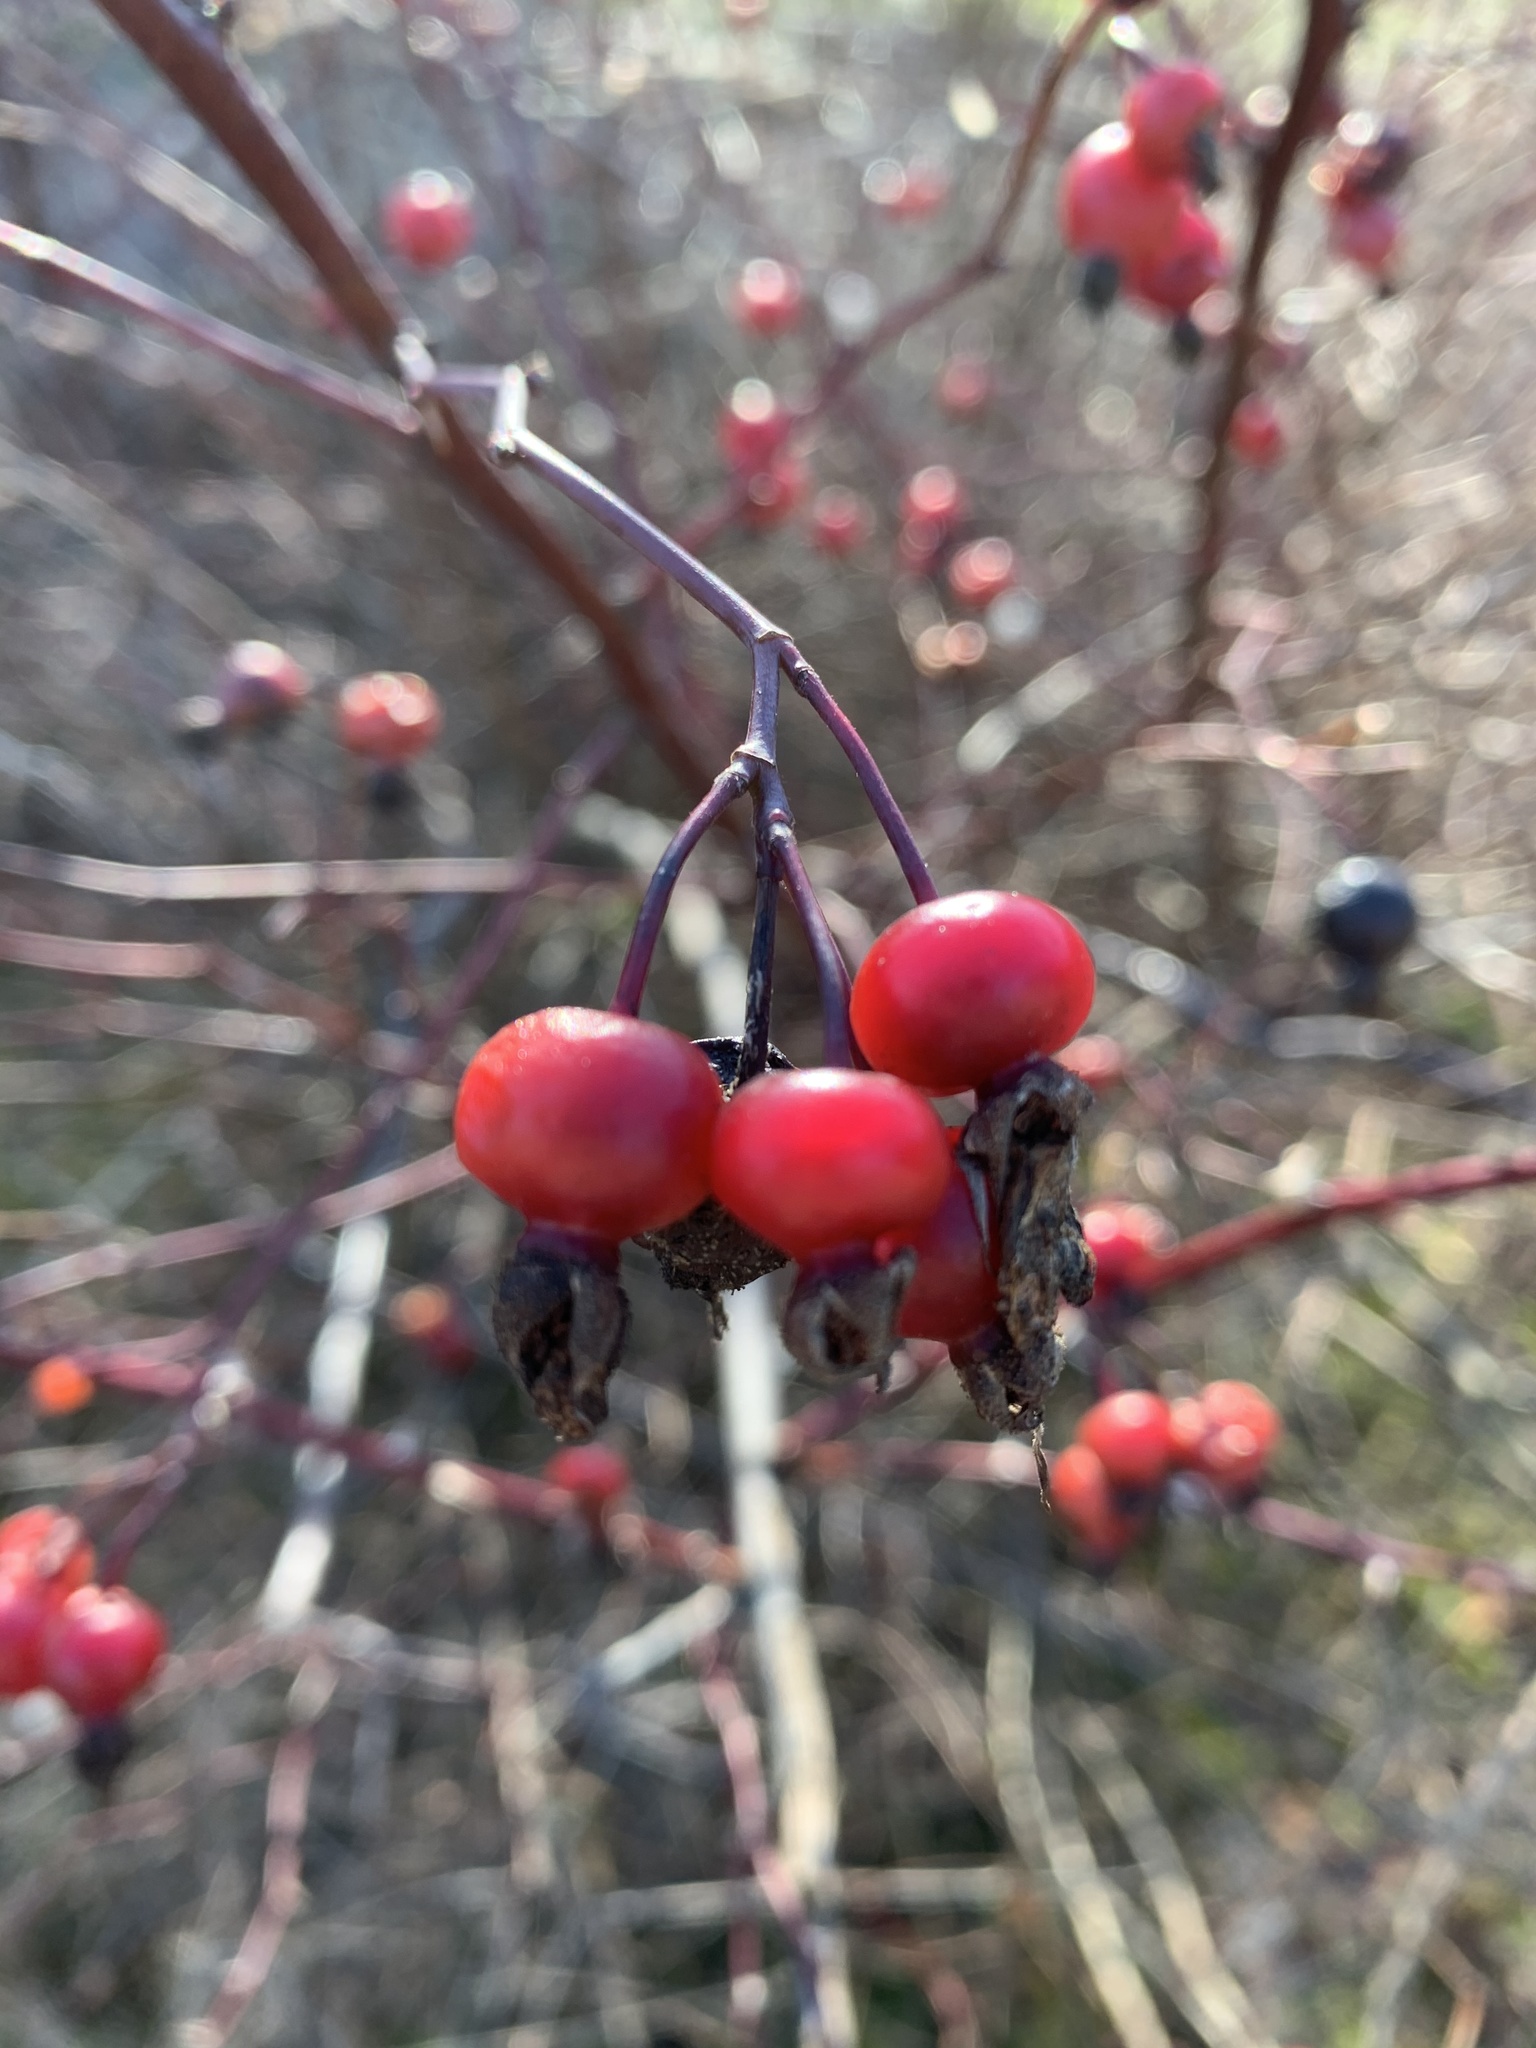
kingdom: Plantae
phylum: Tracheophyta
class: Magnoliopsida
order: Rosales
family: Rosaceae
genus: Rosa
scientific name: Rosa pisocarpa
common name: Cluster rose
